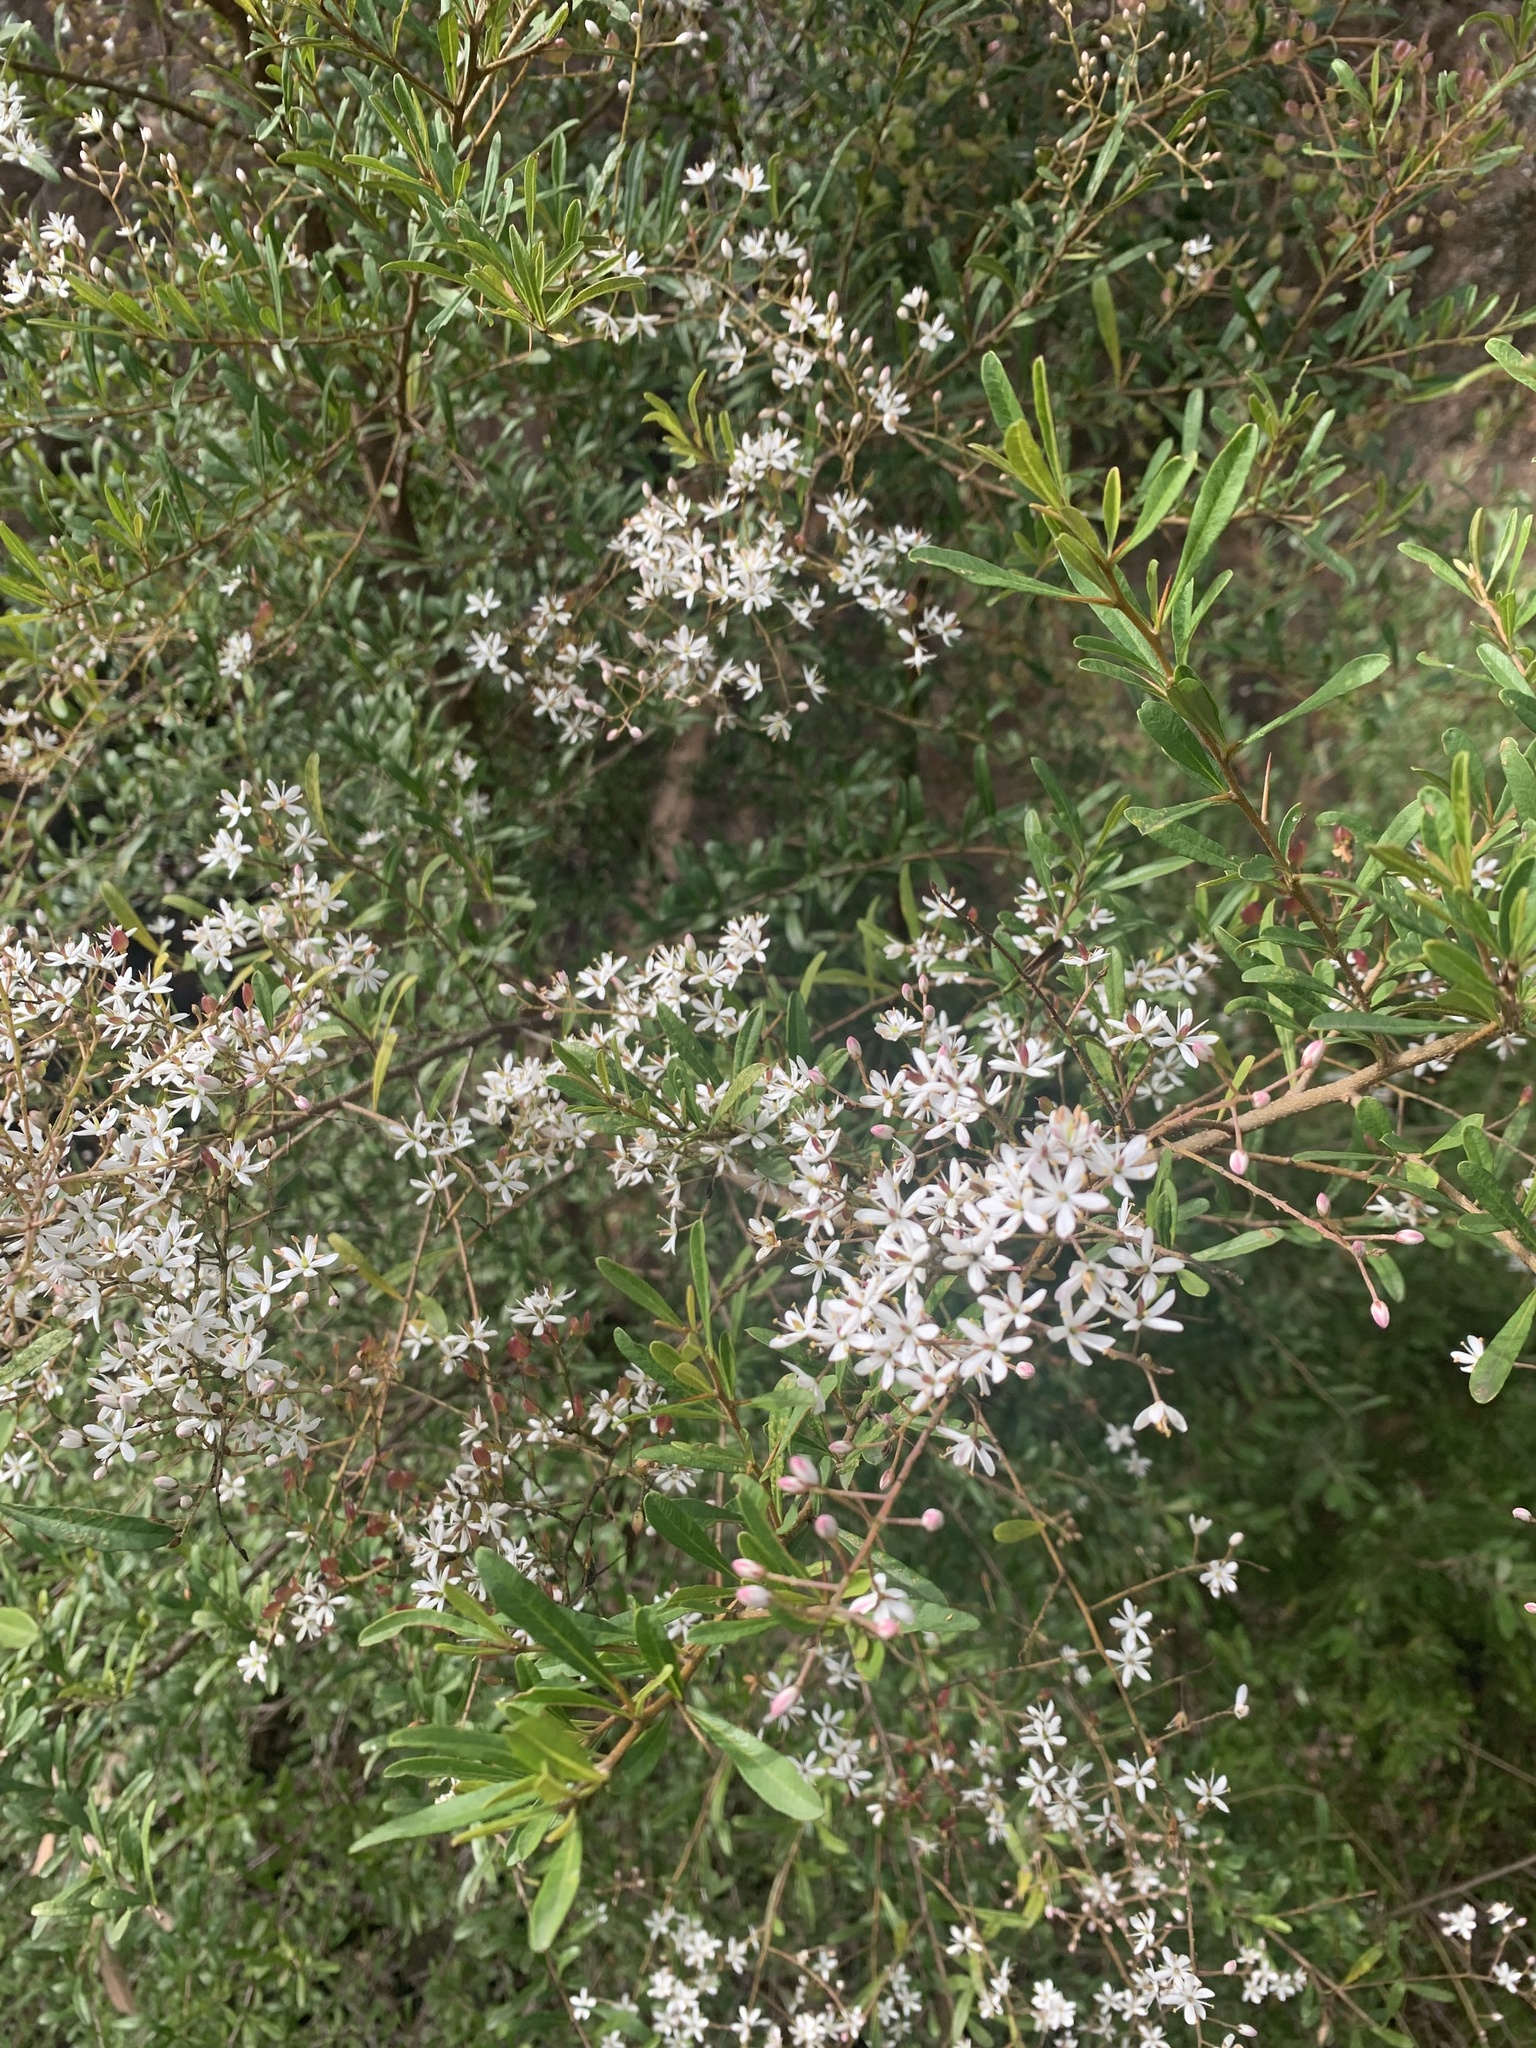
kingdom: Plantae
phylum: Tracheophyta
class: Magnoliopsida
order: Apiales
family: Pittosporaceae
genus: Bursaria
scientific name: Bursaria spinosa
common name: Australian blackthorn
